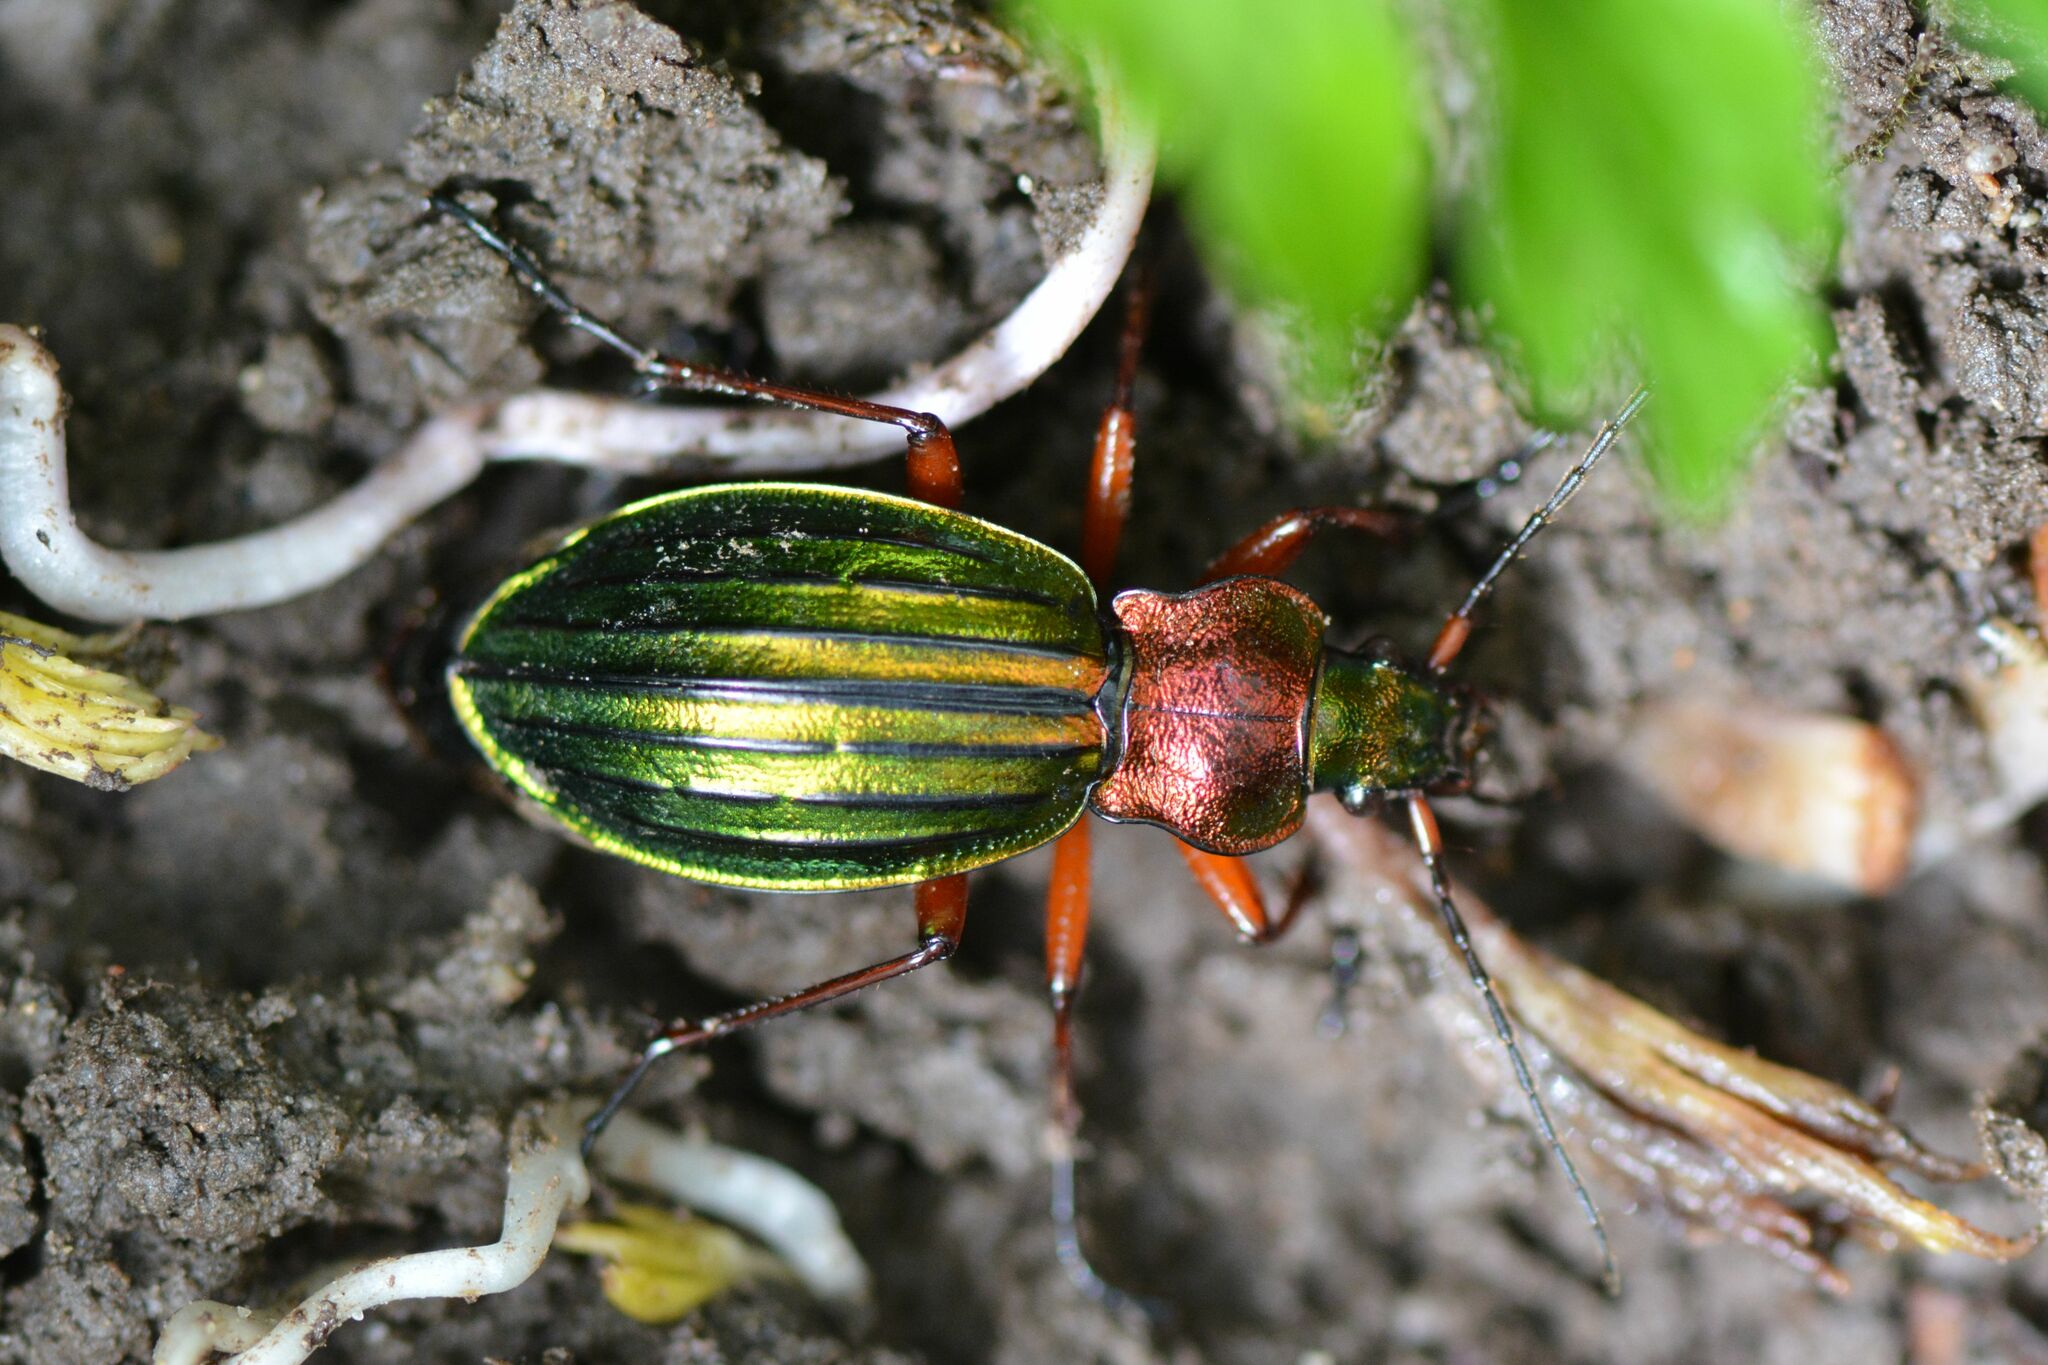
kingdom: Animalia
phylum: Arthropoda
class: Insecta
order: Coleoptera
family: Carabidae
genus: Carabus
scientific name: Carabus auronitens
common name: Carabus auronitens
